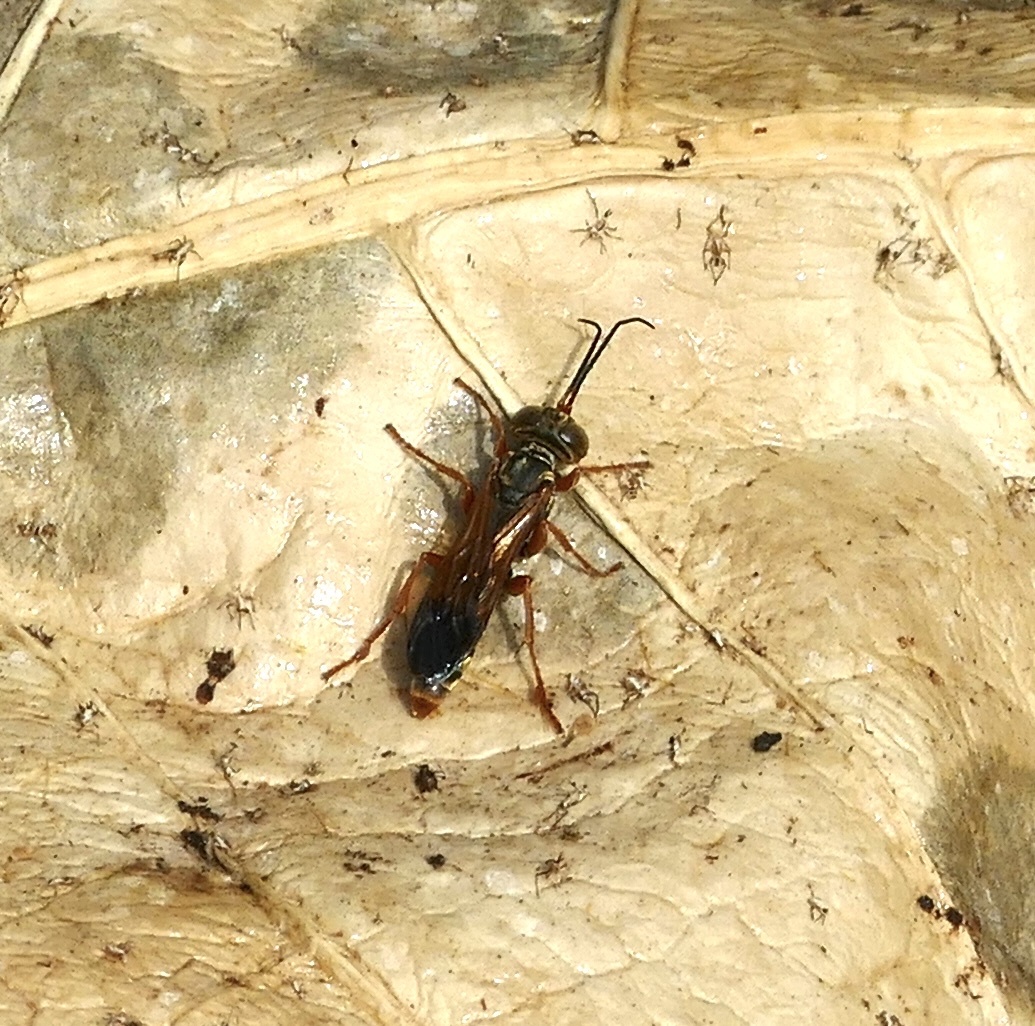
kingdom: Animalia
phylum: Arthropoda
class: Insecta
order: Hymenoptera
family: Crabronidae
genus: Liris
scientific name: Liris haemorrhoidalis
